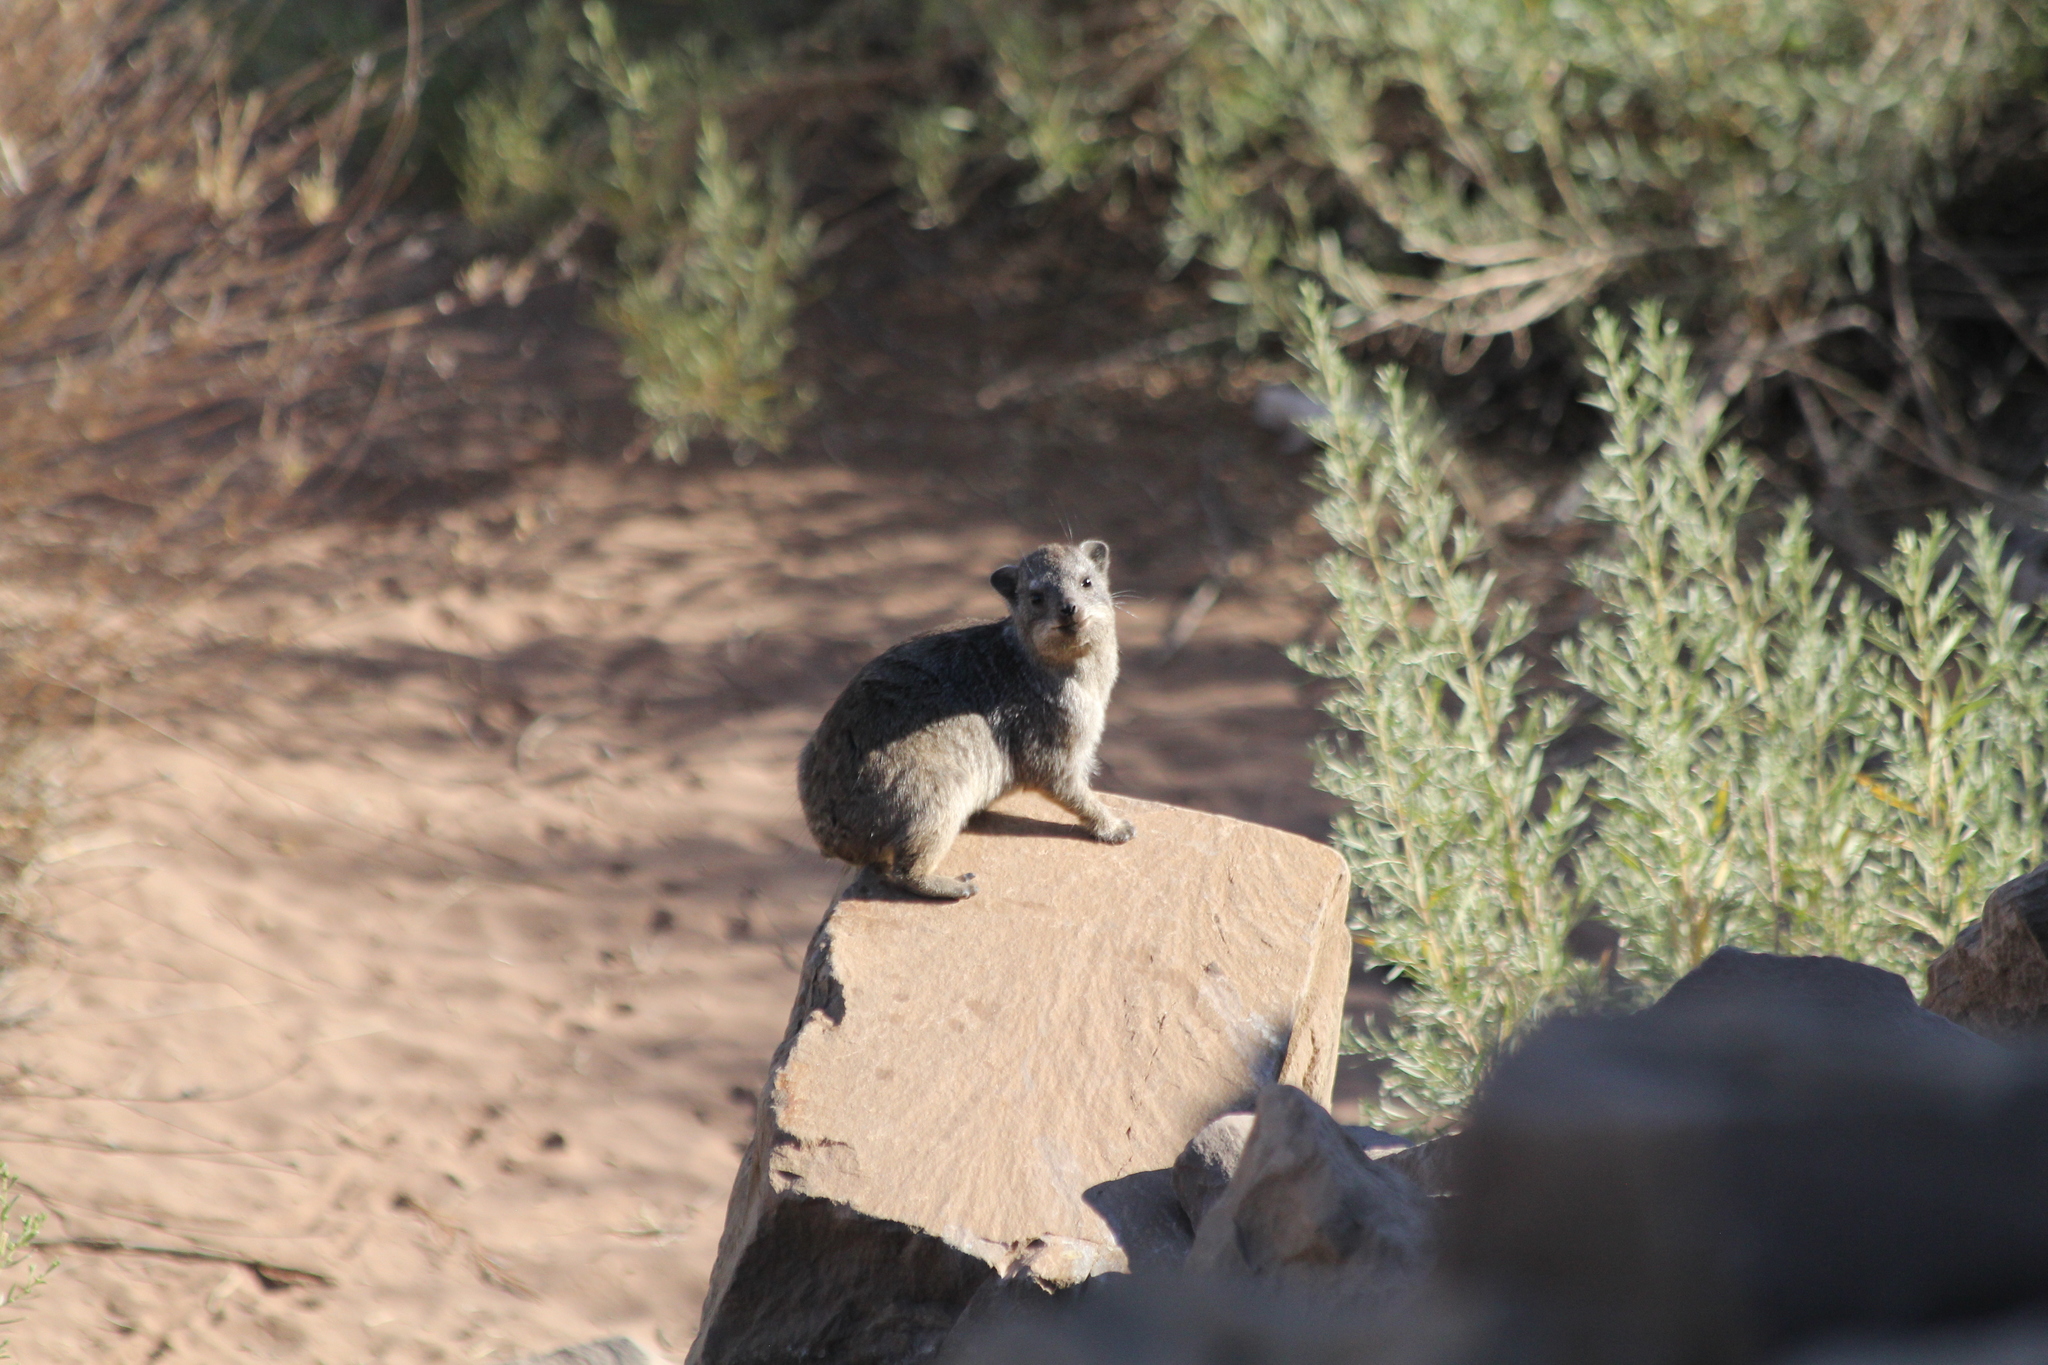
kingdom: Animalia
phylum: Chordata
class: Mammalia
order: Hyracoidea
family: Procaviidae
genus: Procavia
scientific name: Procavia capensis
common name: Rock hyrax
